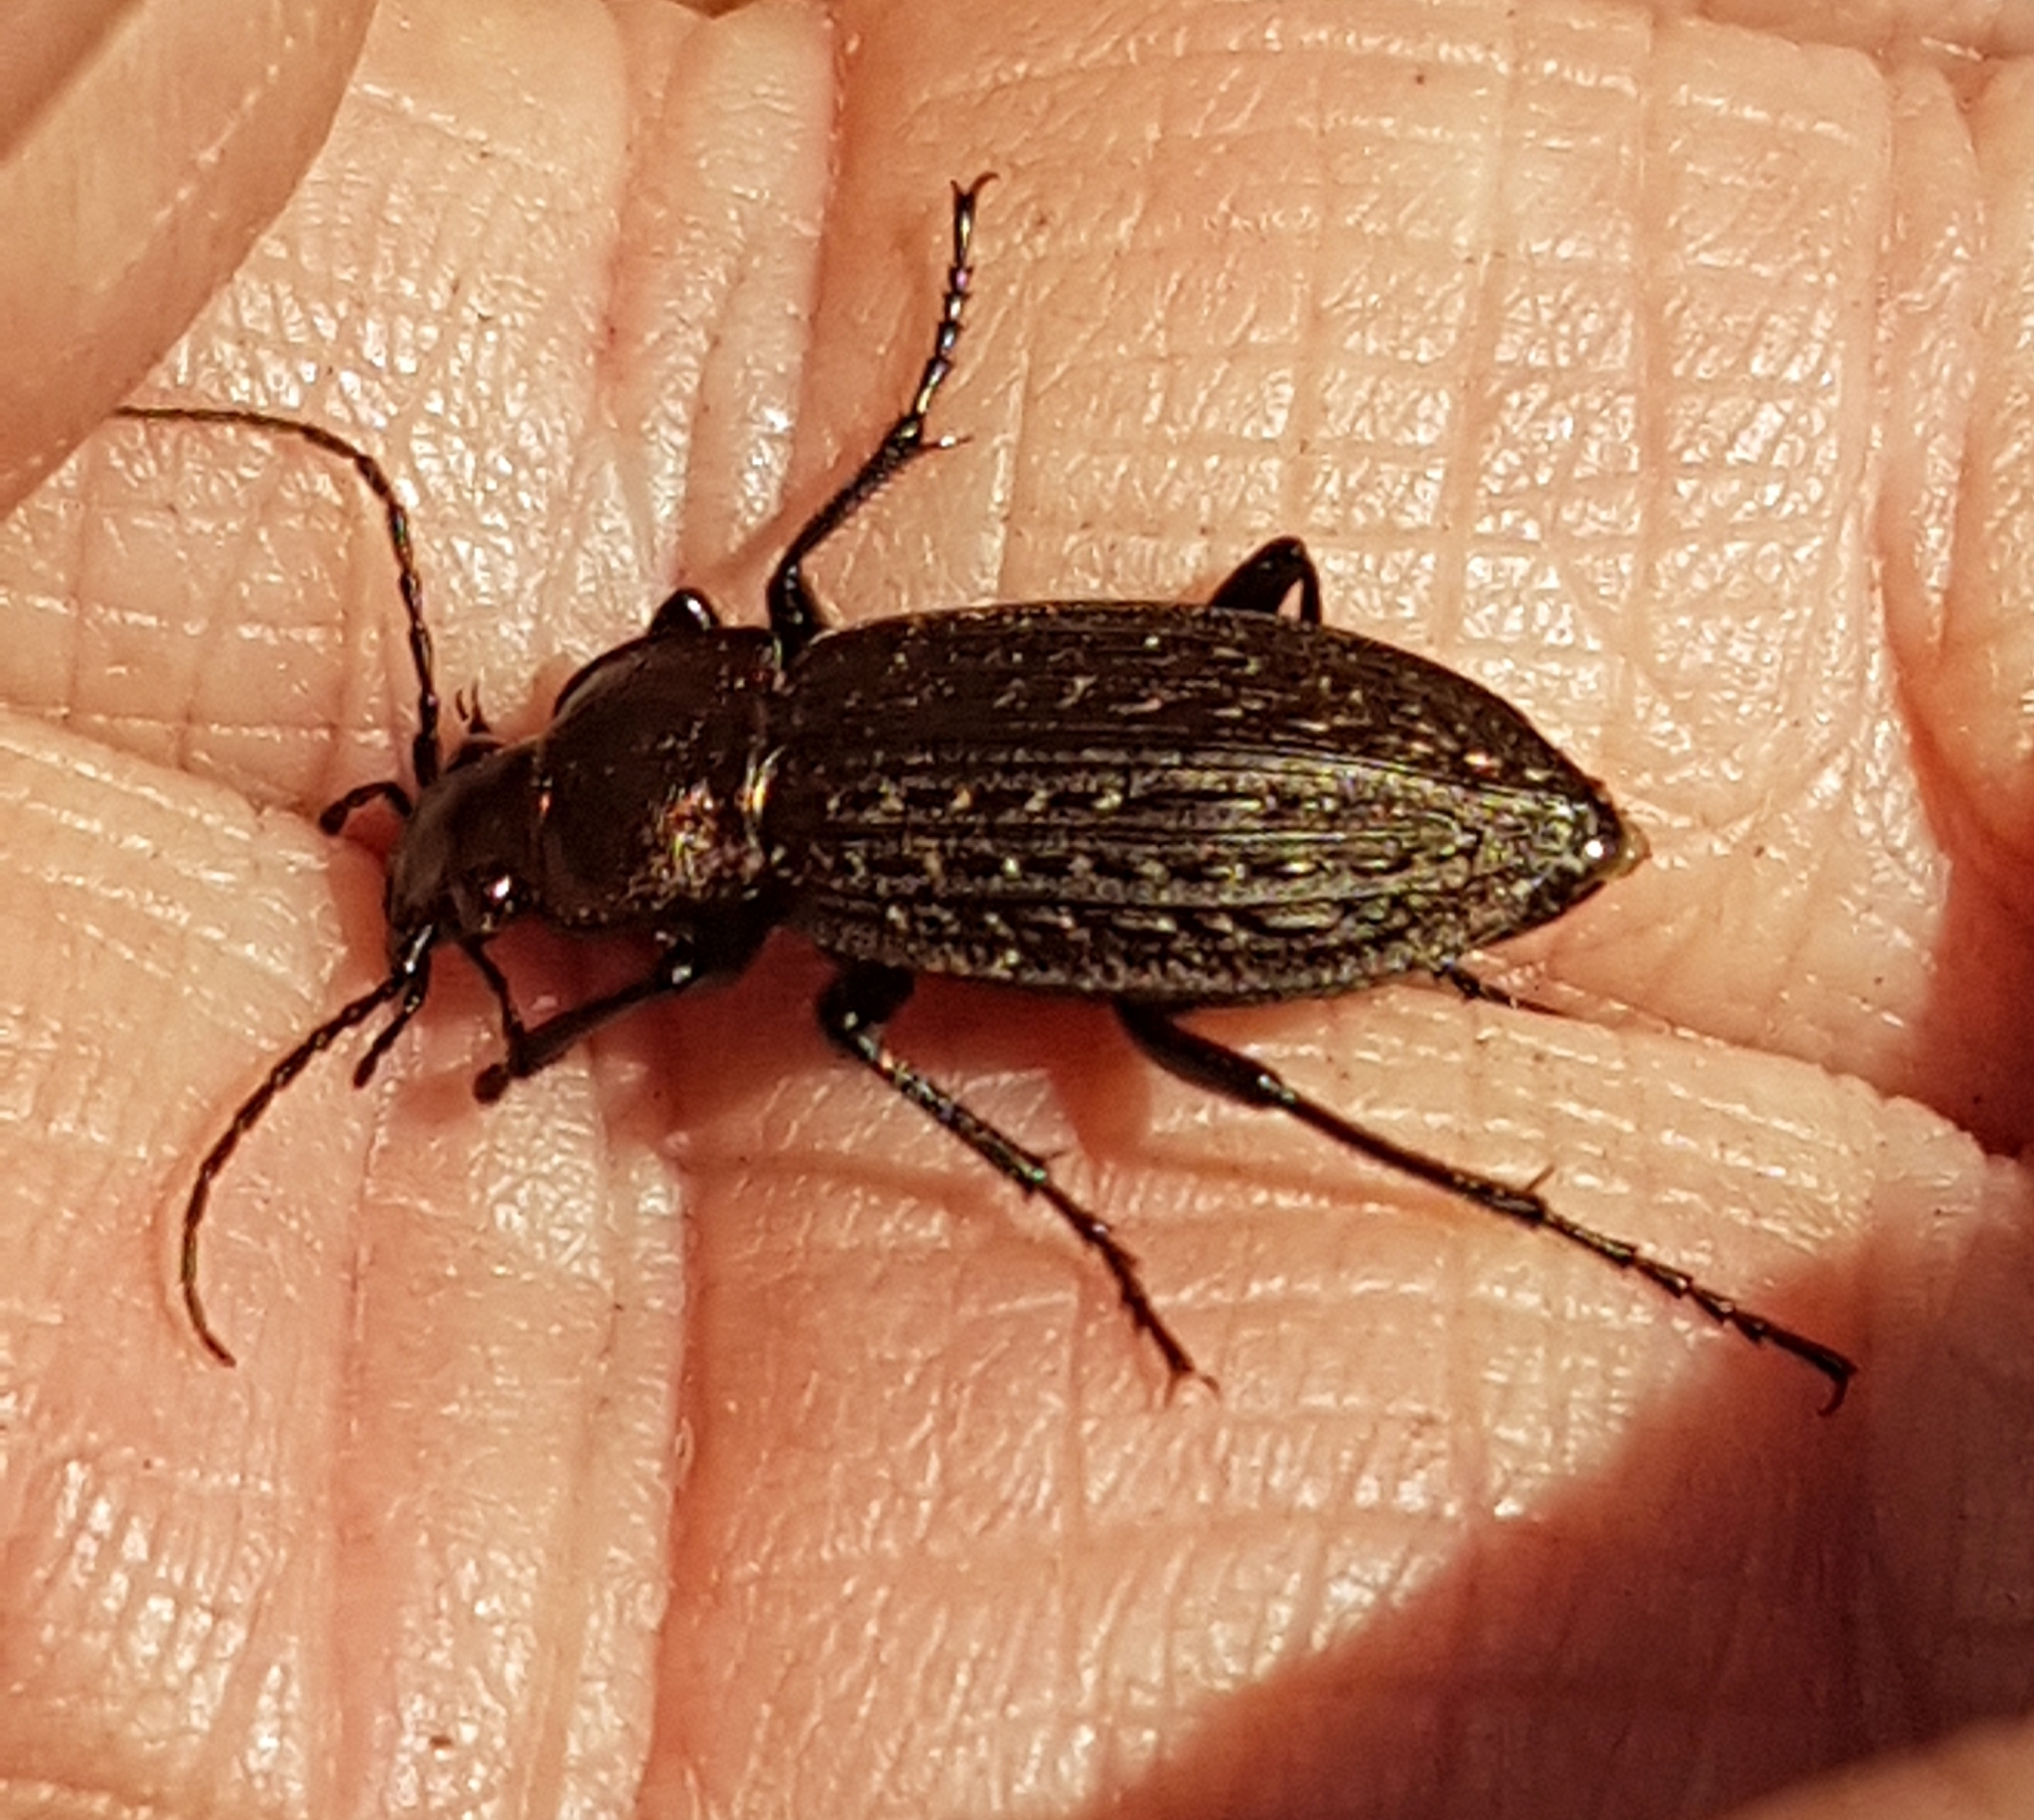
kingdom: Animalia
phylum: Arthropoda
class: Insecta
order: Coleoptera
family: Carabidae
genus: Carabus
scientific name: Carabus granulatus
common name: Granulate ground beetle
